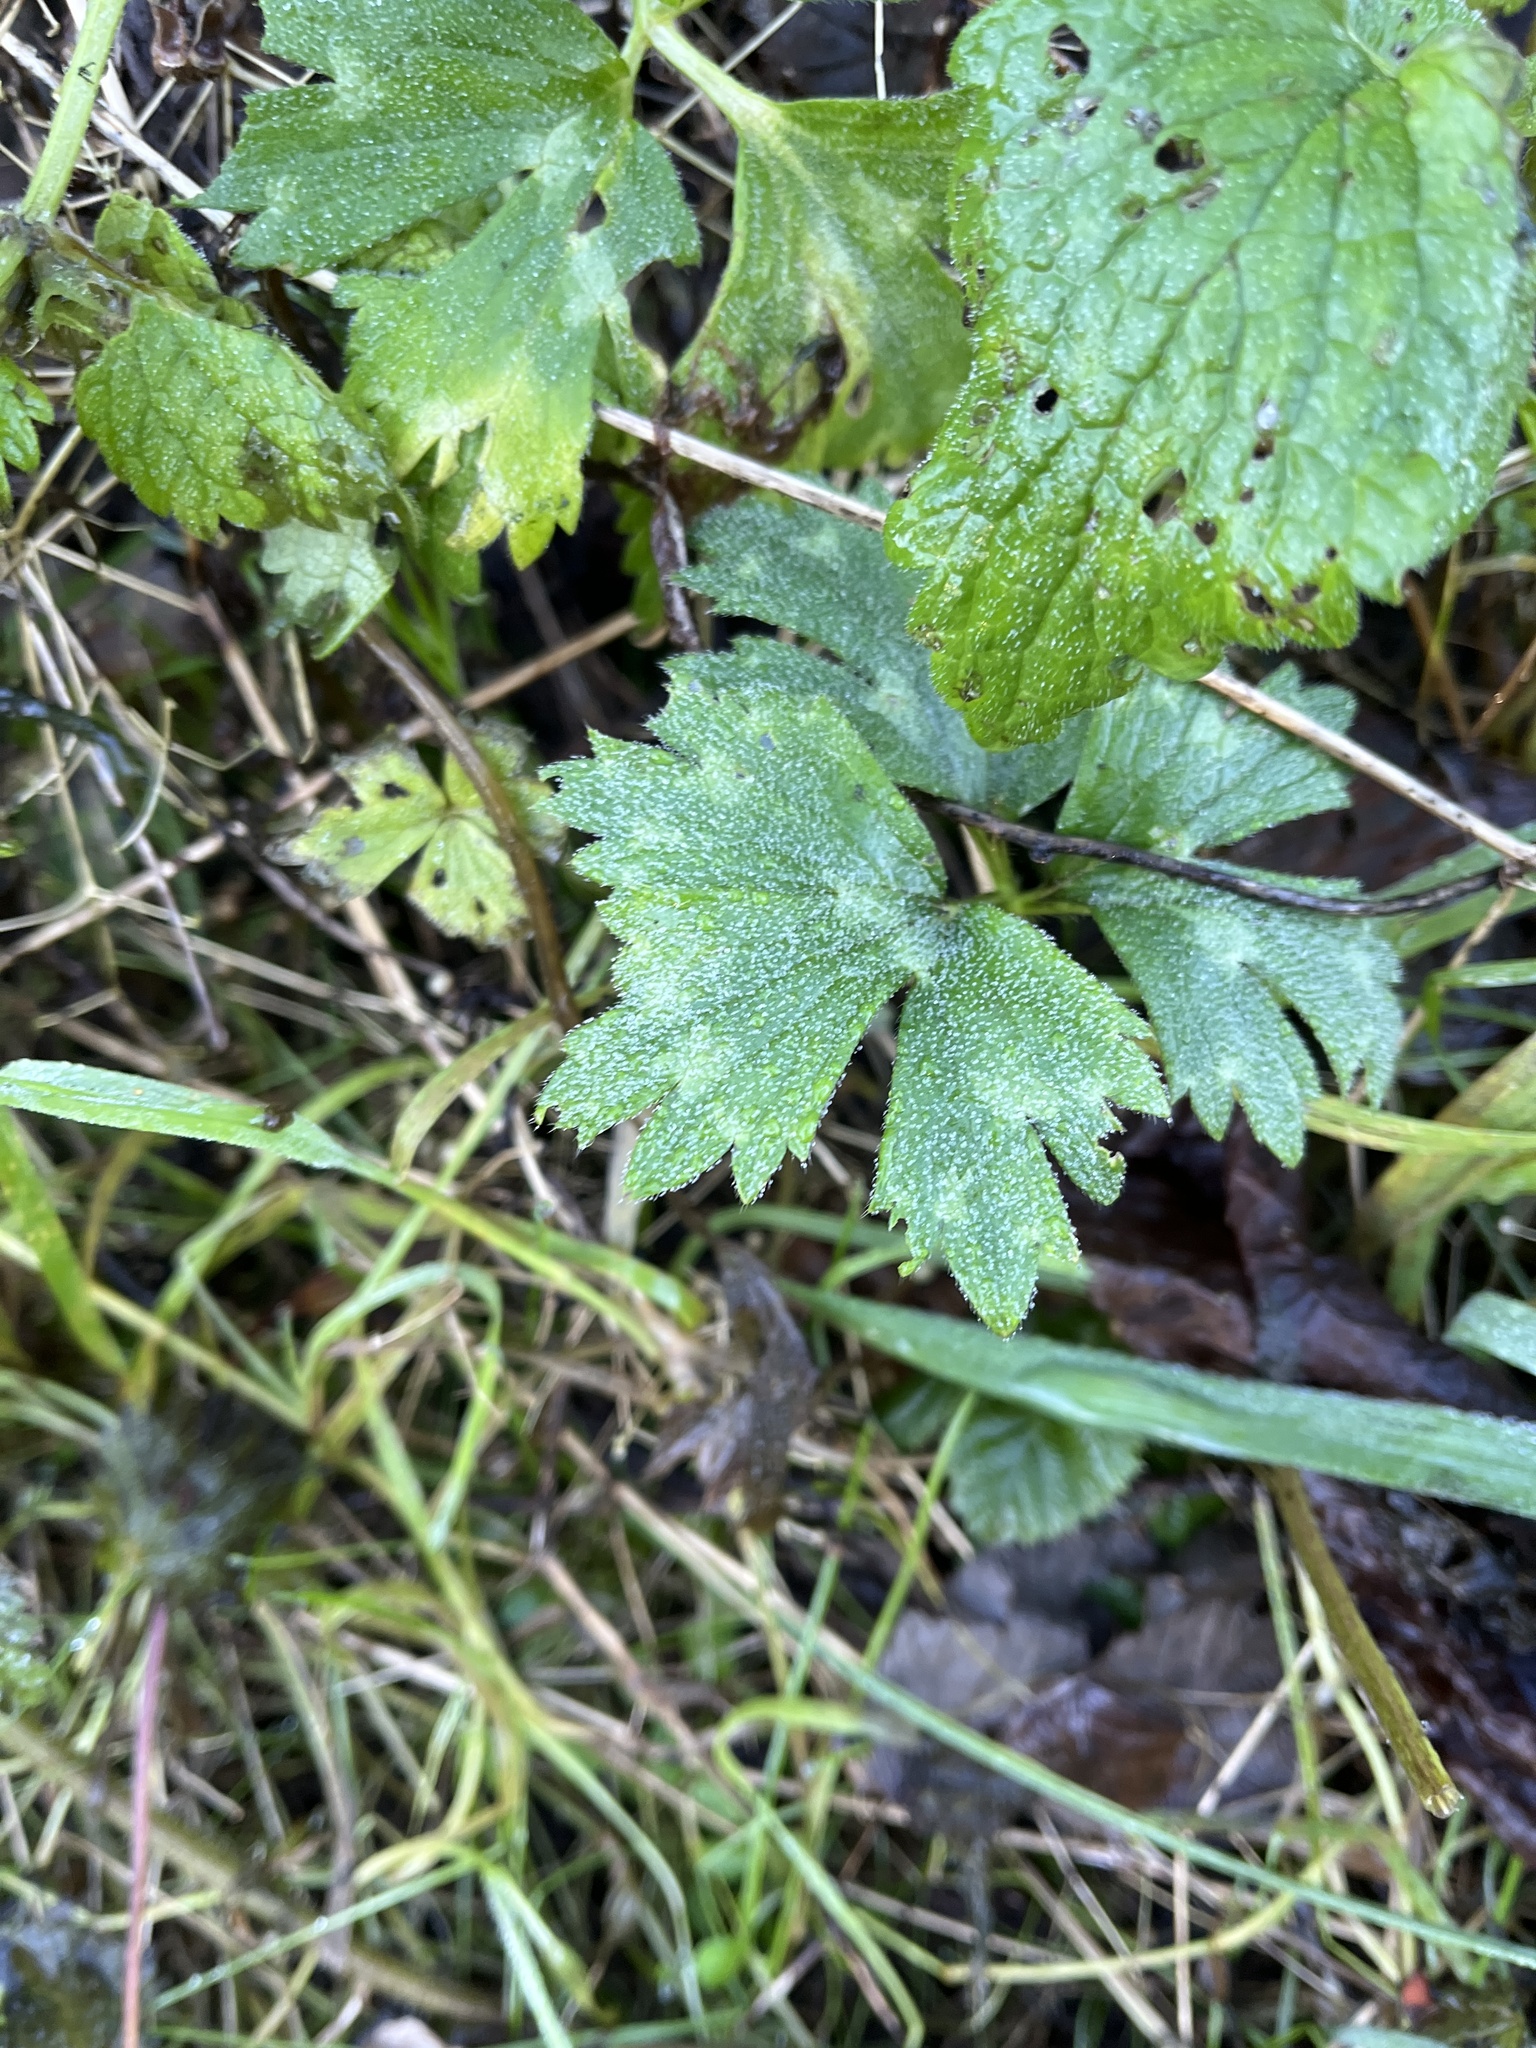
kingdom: Plantae
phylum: Tracheophyta
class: Magnoliopsida
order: Ranunculales
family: Ranunculaceae
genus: Ranunculus
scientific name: Ranunculus repens
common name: Creeping buttercup
